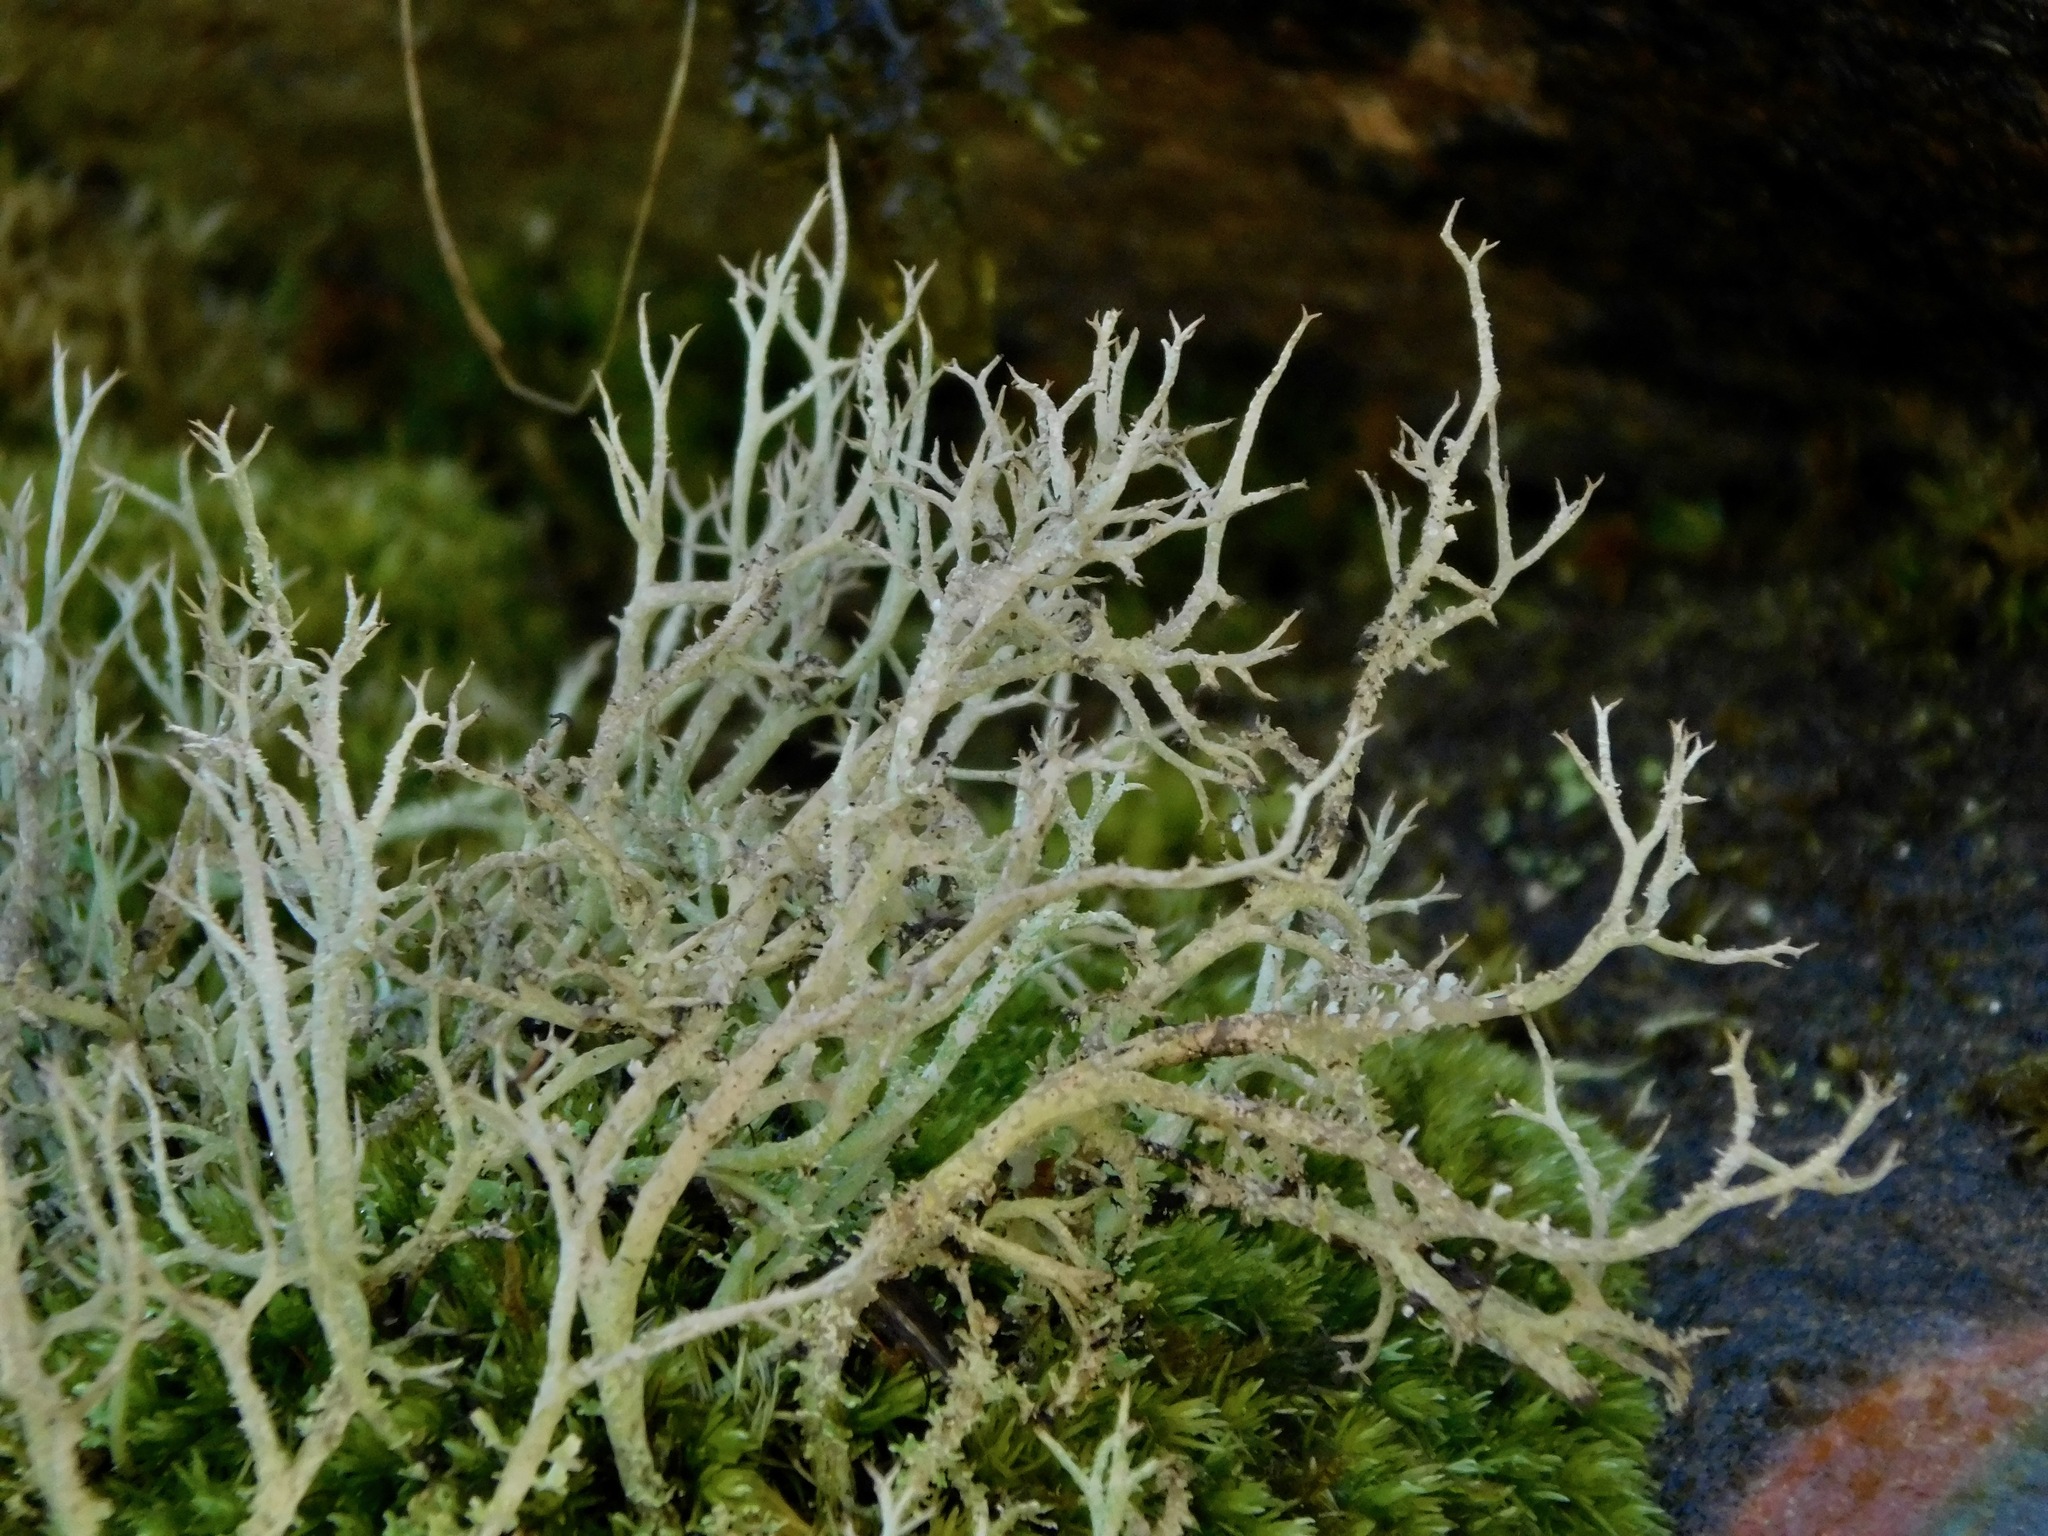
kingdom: Fungi
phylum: Ascomycota
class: Lecanoromycetes
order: Lecanorales
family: Cladoniaceae
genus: Cladonia
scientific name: Cladonia furcata
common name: Many-forked cladonia
